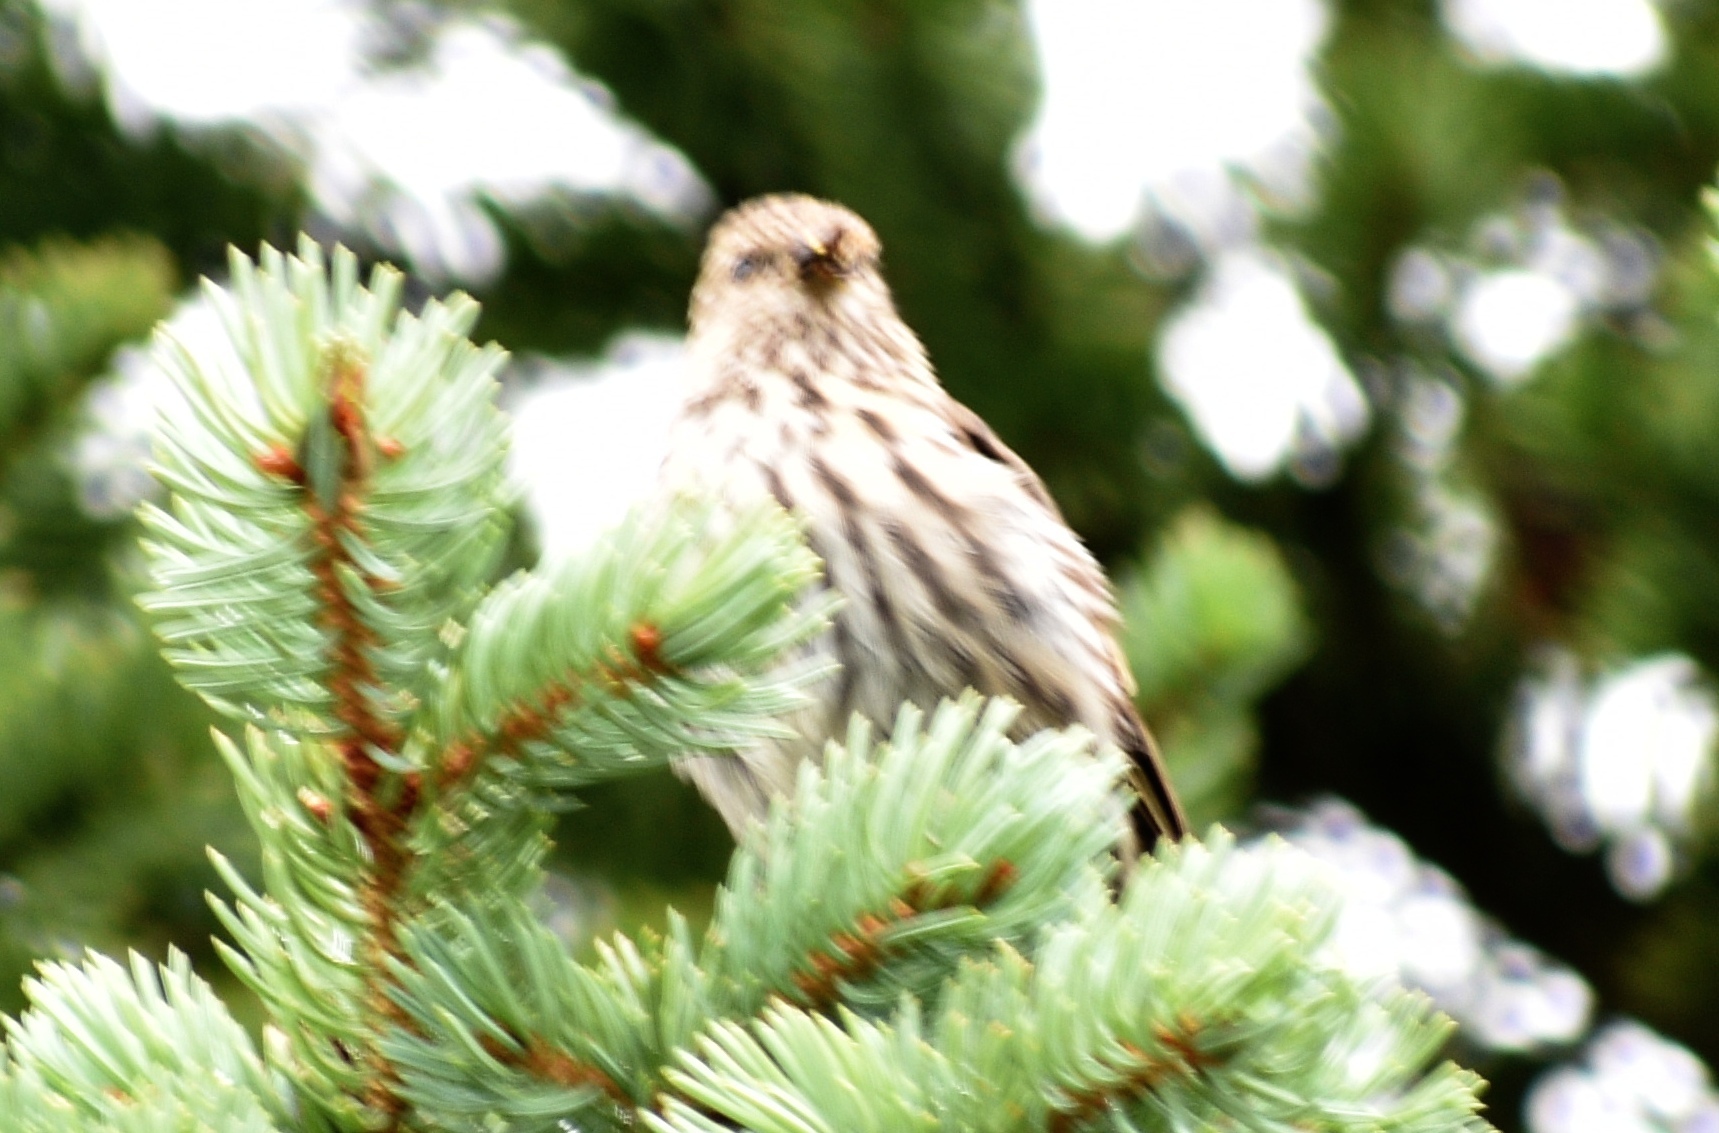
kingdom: Animalia
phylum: Chordata
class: Aves
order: Passeriformes
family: Fringillidae
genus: Spinus
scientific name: Spinus pinus
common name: Pine siskin
